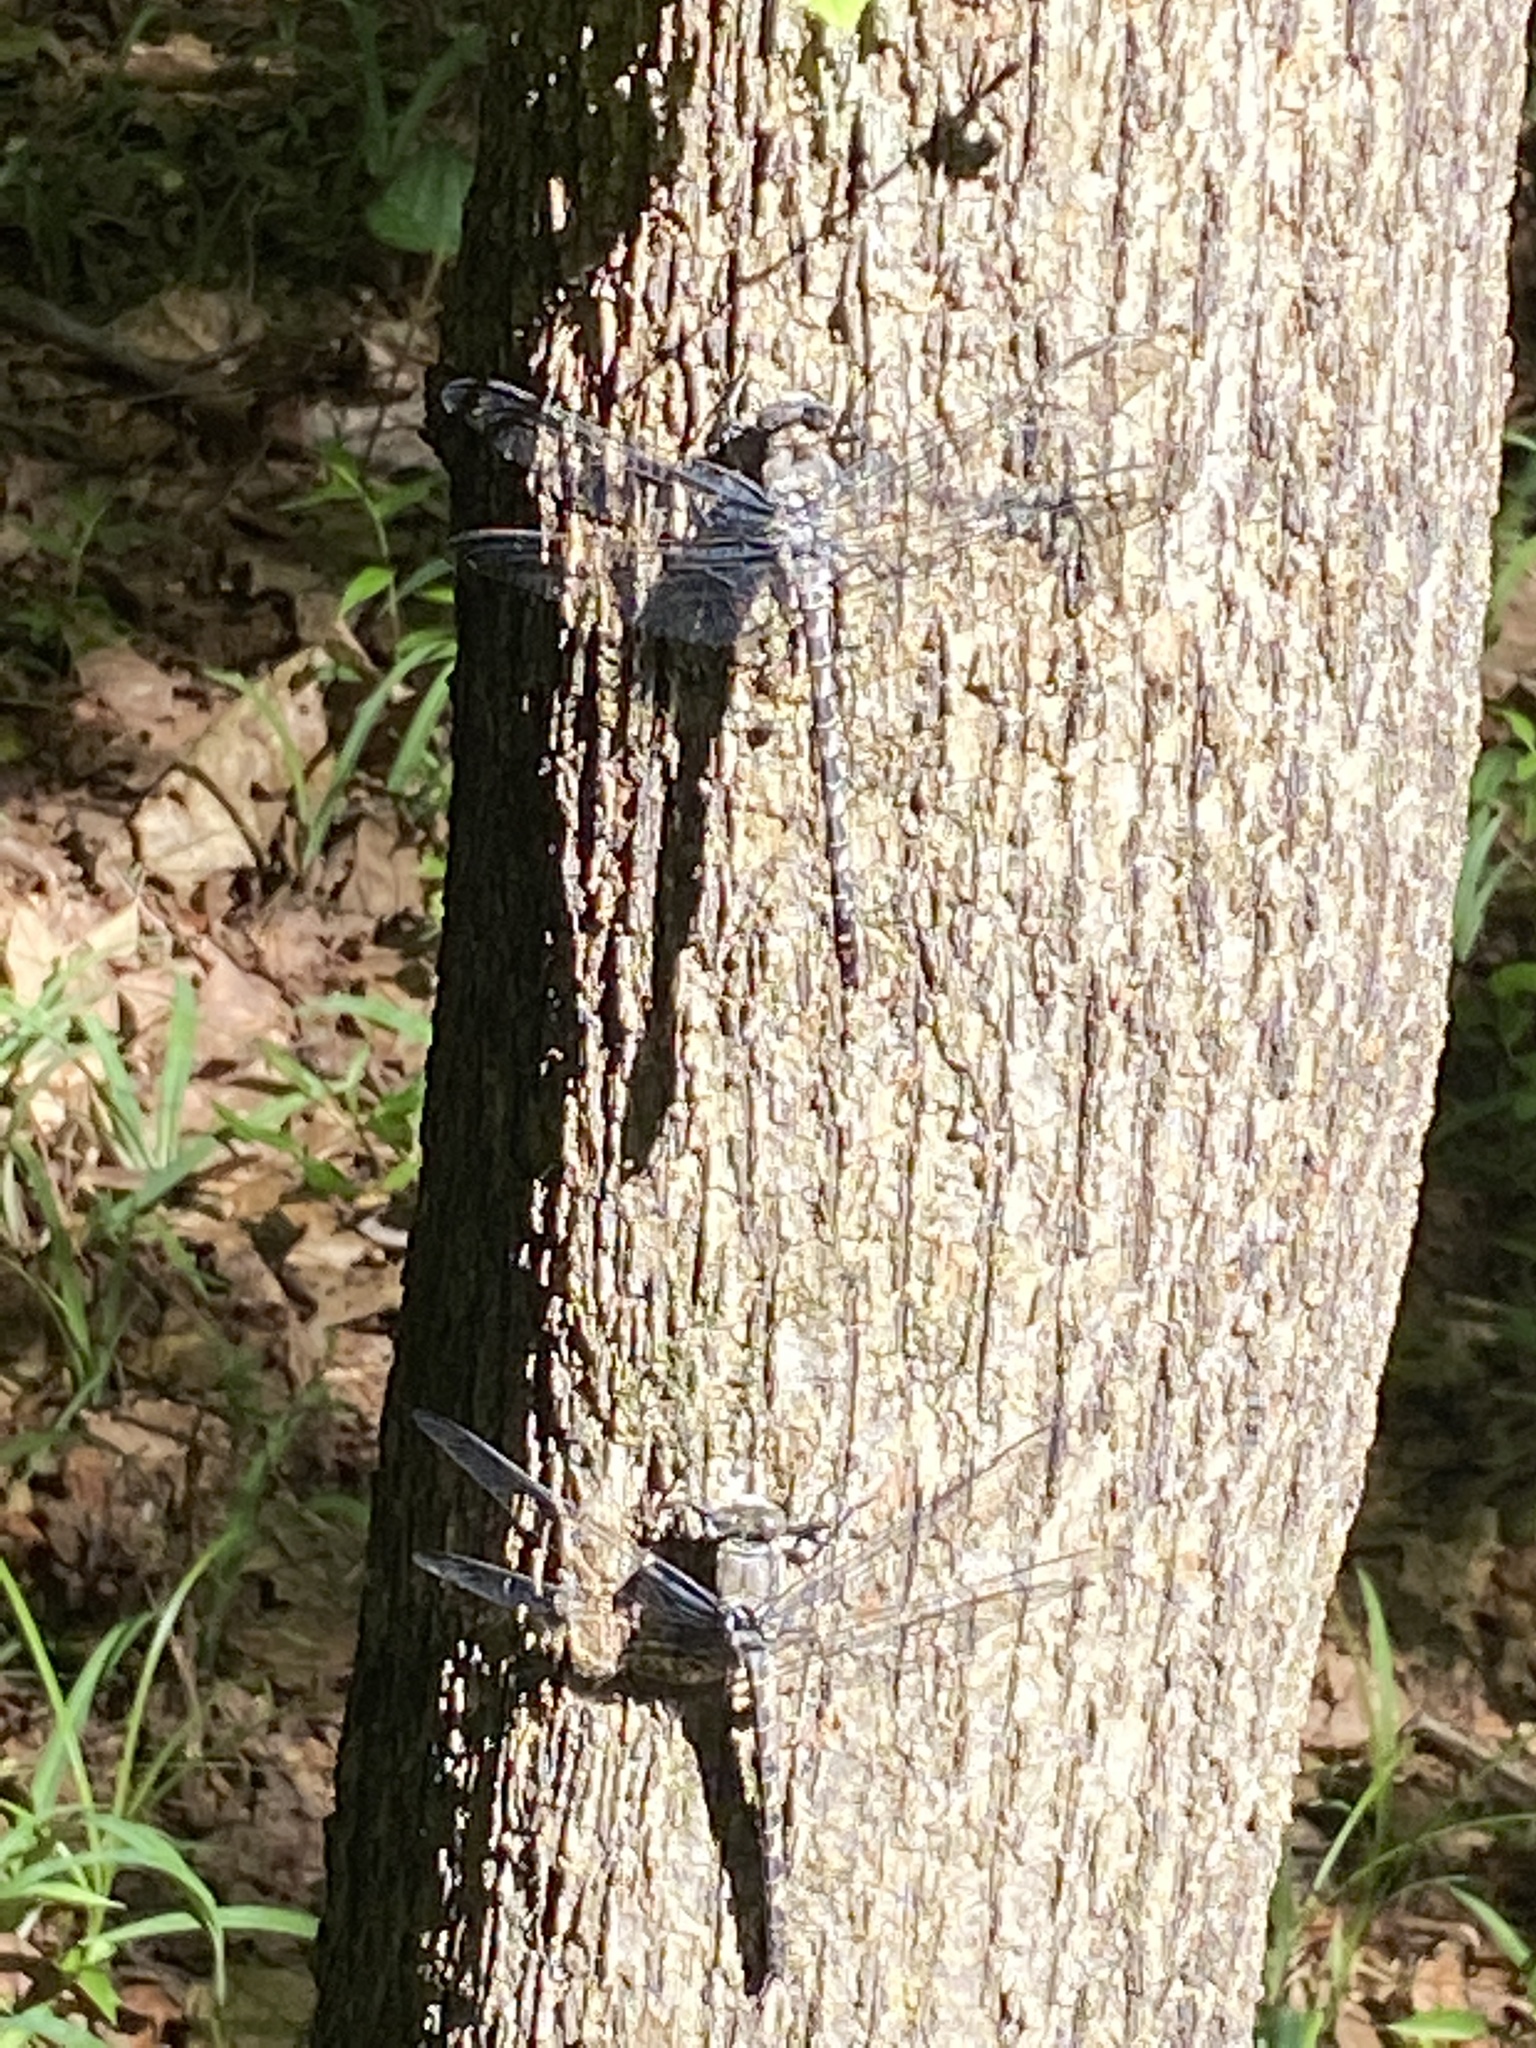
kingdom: Animalia
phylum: Arthropoda
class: Insecta
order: Odonata
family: Petaluridae
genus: Tachopteryx
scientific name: Tachopteryx thoreyi
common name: Gray petaltail
